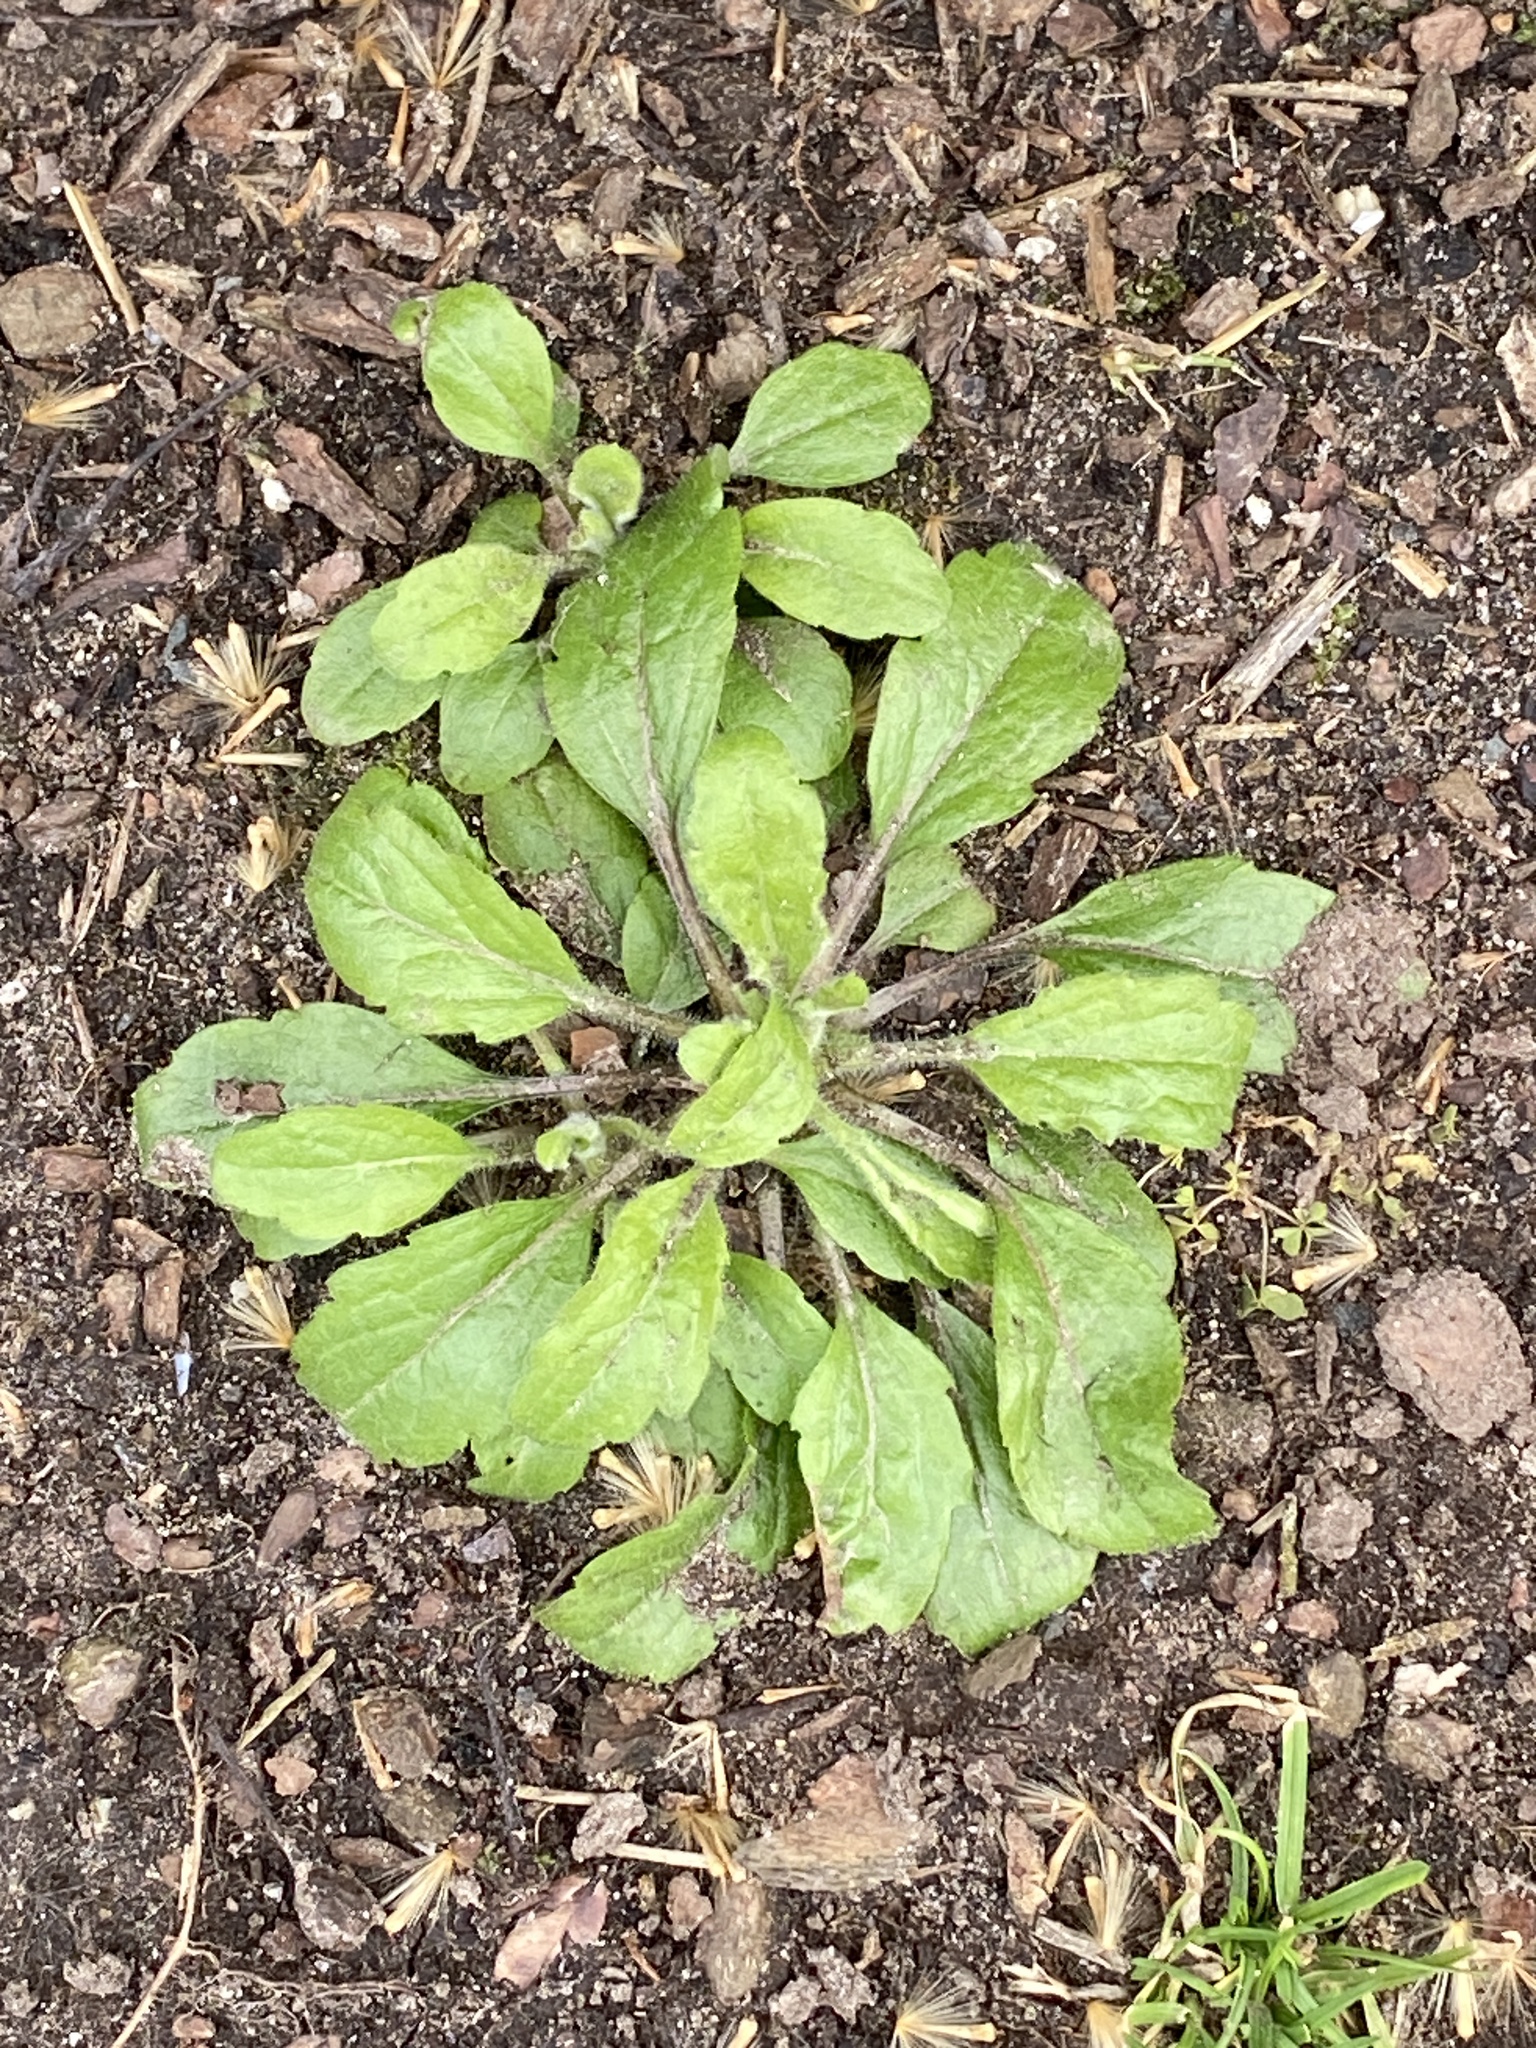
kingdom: Plantae
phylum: Tracheophyta
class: Magnoliopsida
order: Asterales
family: Asteraceae
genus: Erigeron
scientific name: Erigeron canadensis
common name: Canadian fleabane
